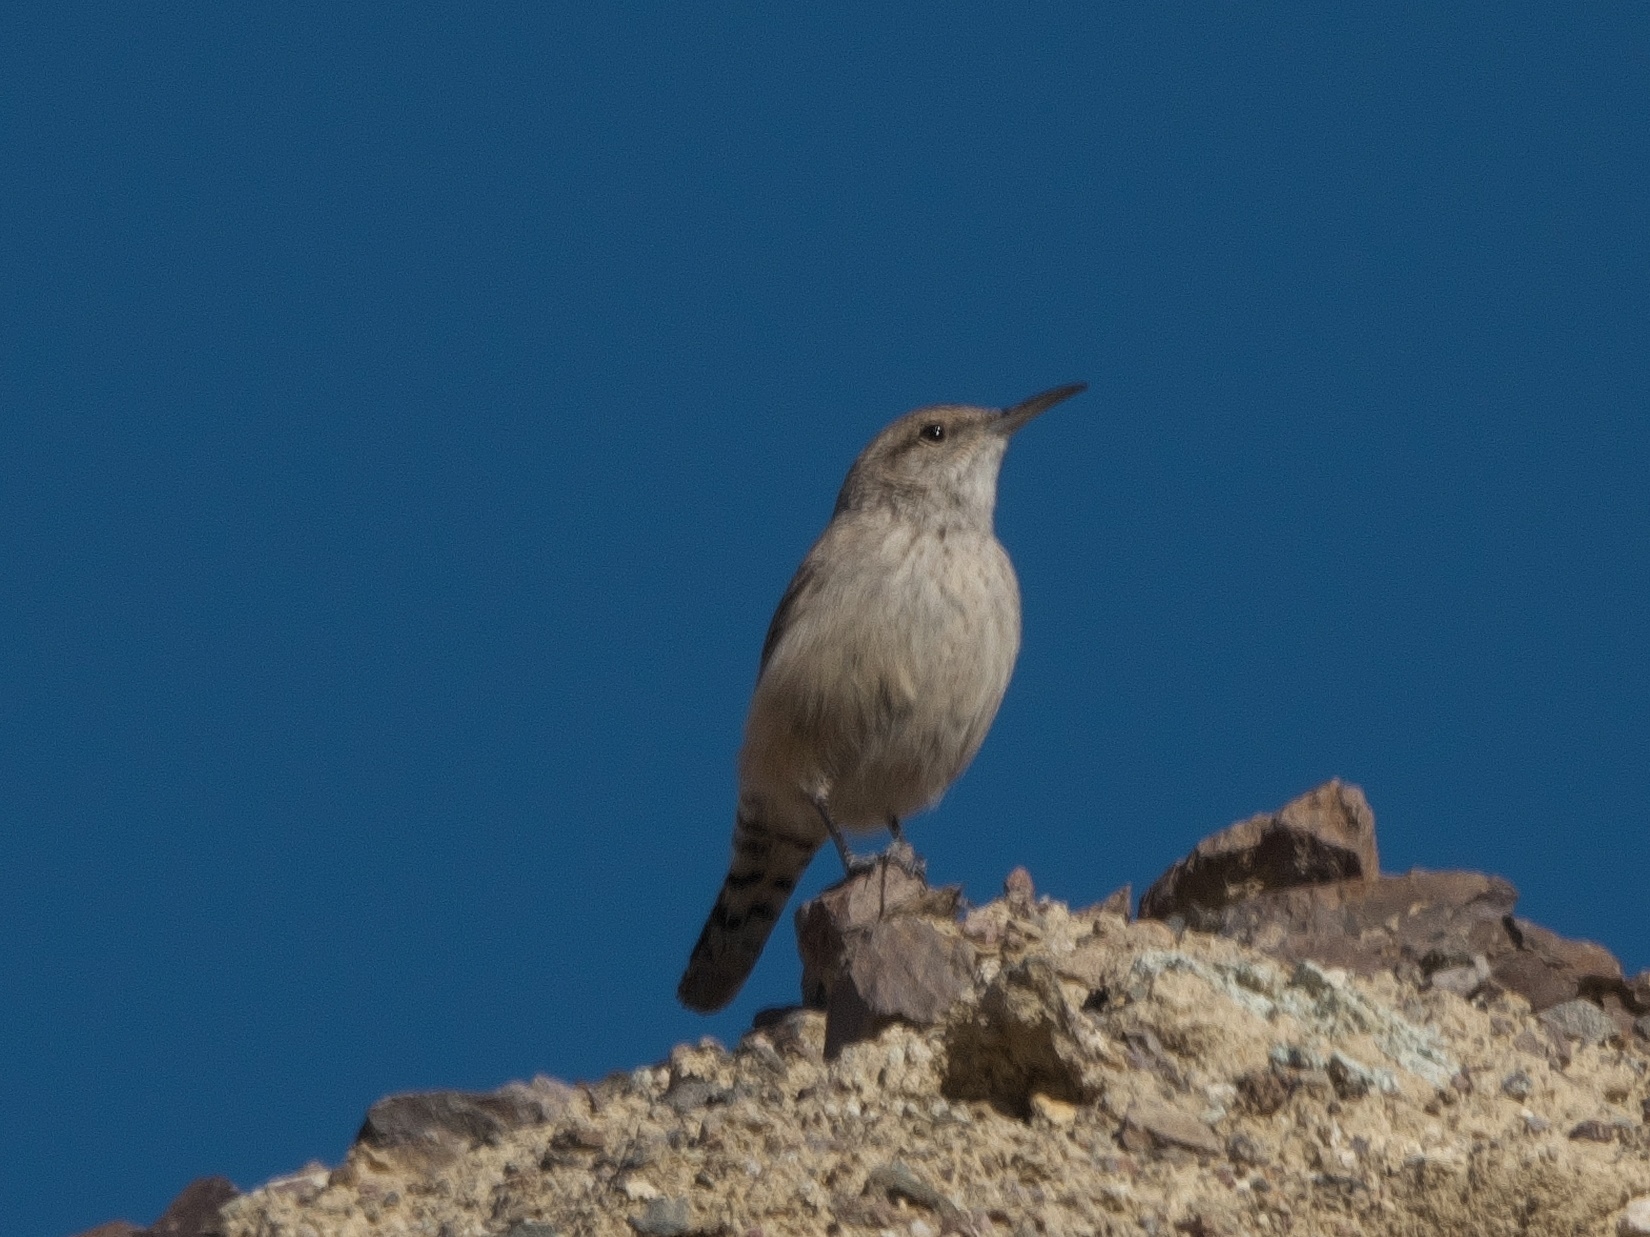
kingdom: Animalia
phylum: Chordata
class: Aves
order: Passeriformes
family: Troglodytidae
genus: Salpinctes
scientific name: Salpinctes obsoletus
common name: Rock wren
